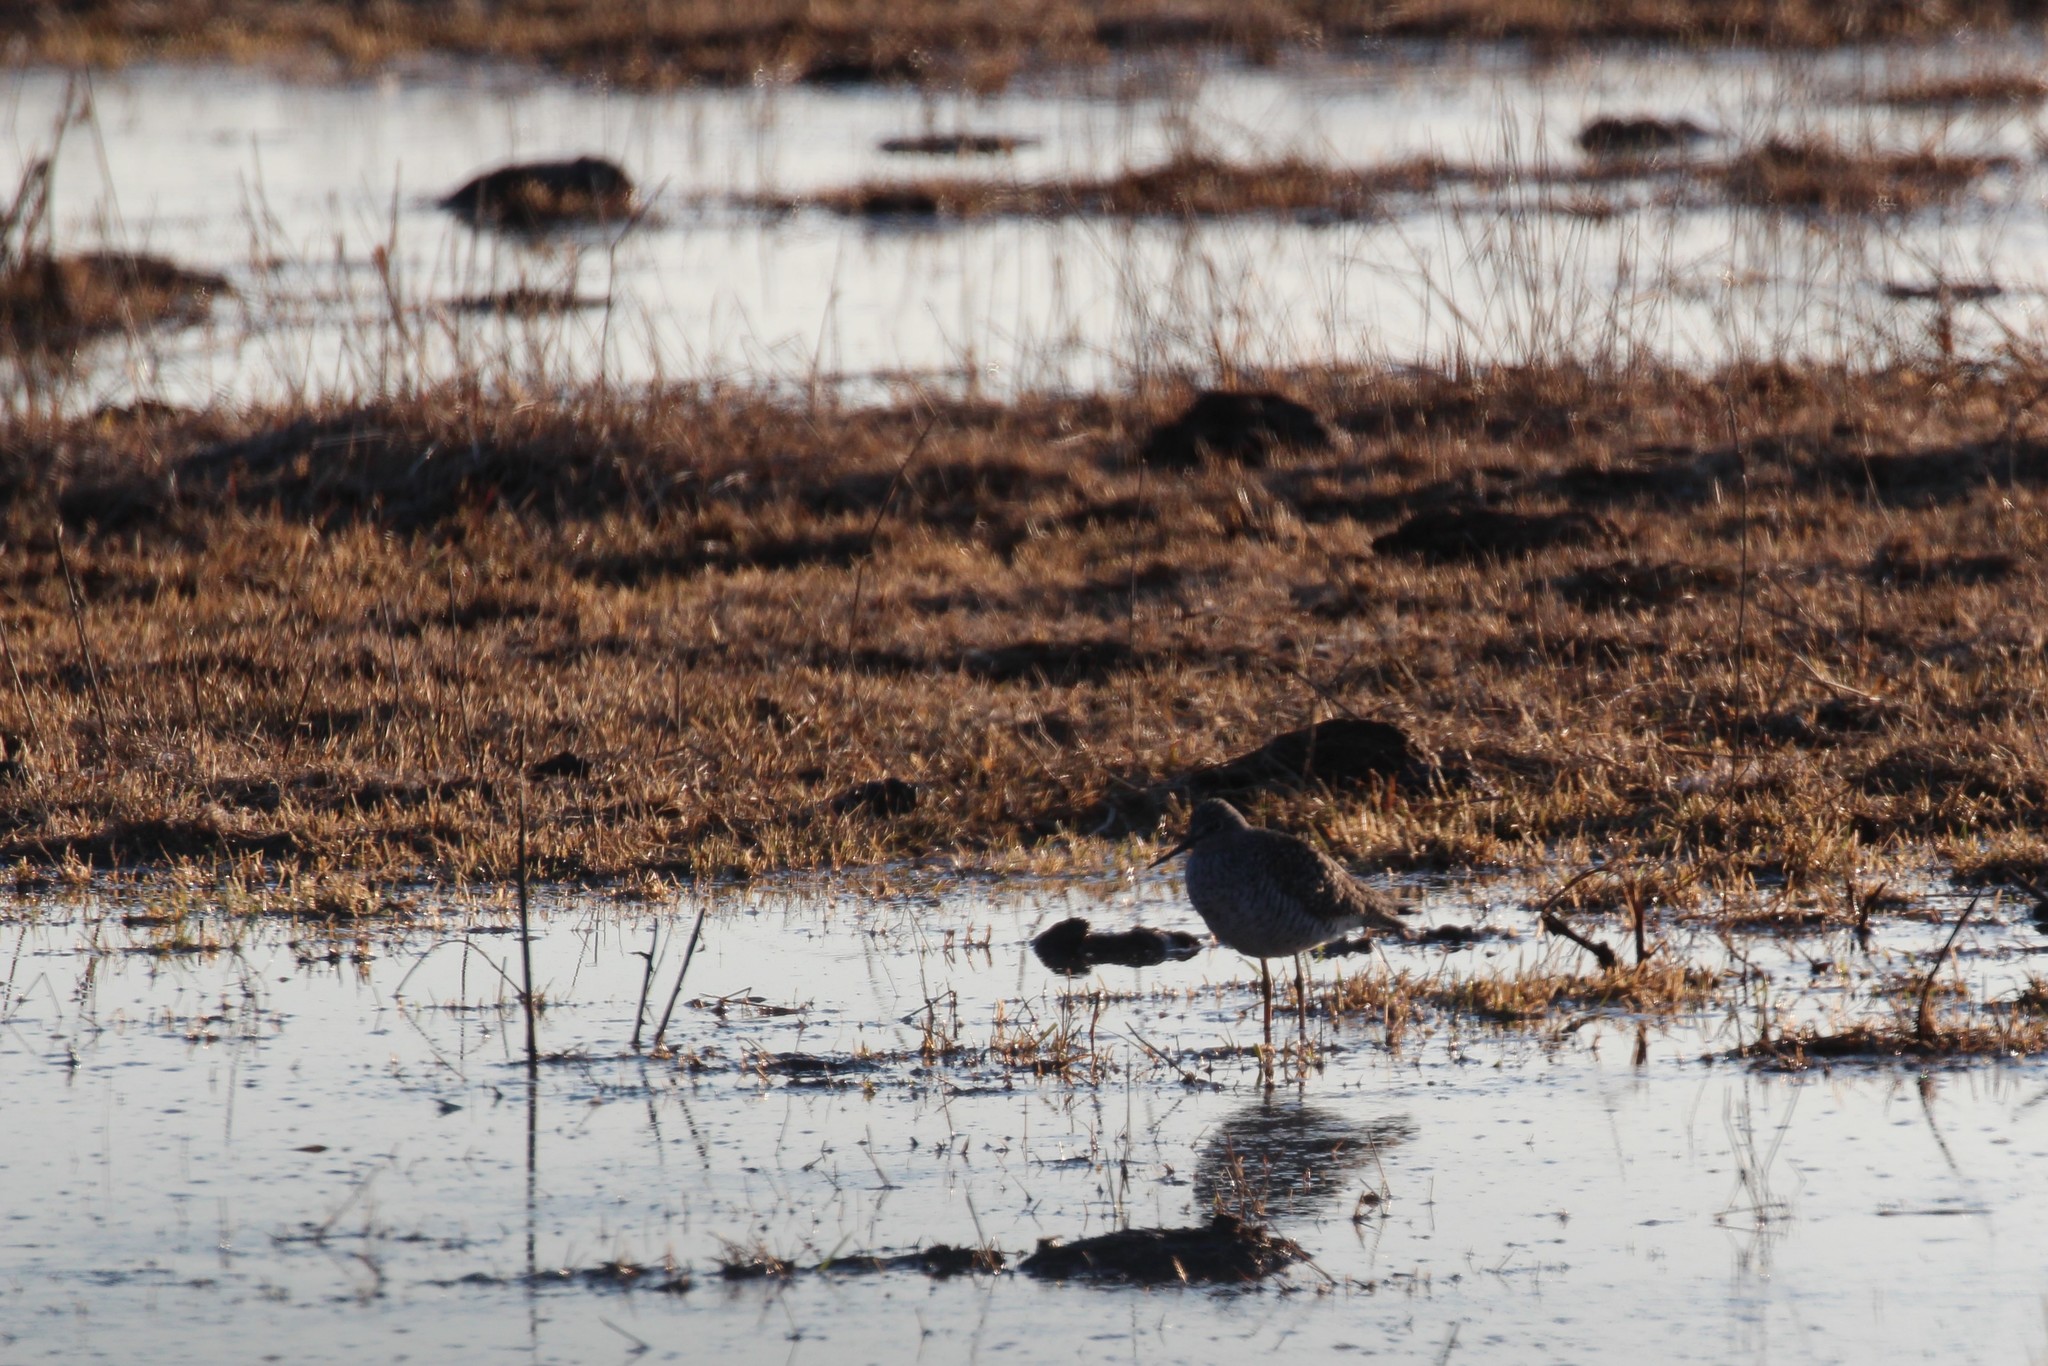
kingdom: Animalia
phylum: Chordata
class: Aves
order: Charadriiformes
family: Scolopacidae
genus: Tringa
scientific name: Tringa melanoleuca
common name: Greater yellowlegs
